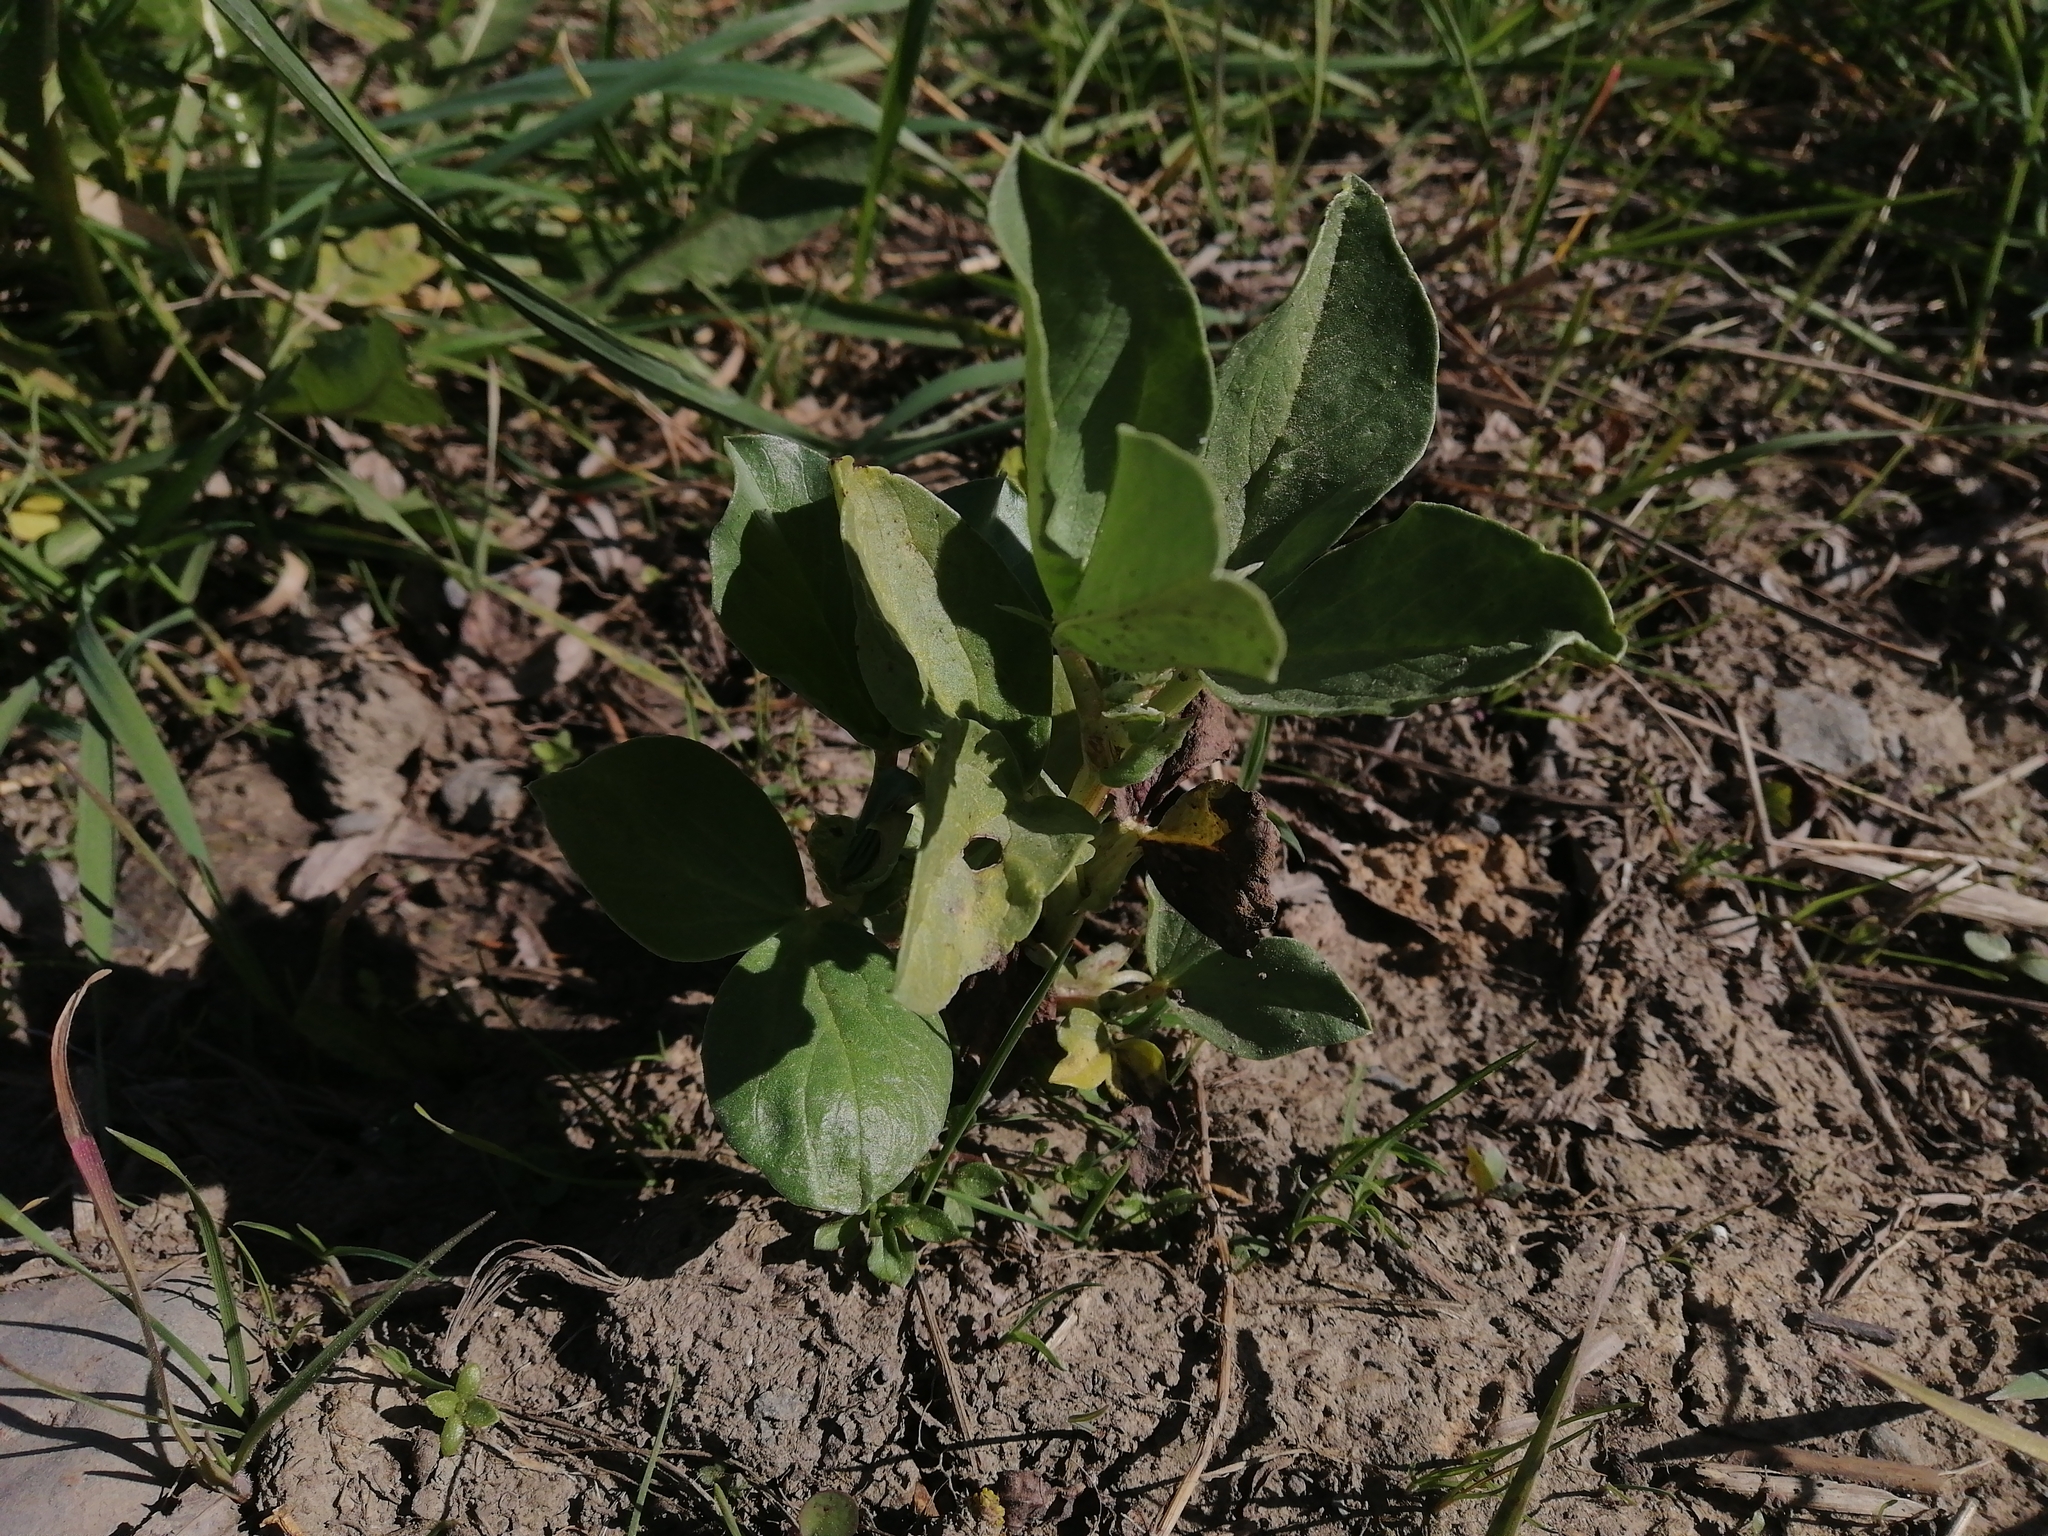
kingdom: Plantae
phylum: Tracheophyta
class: Magnoliopsida
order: Fabales
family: Fabaceae
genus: Vicia
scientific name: Vicia faba
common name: Broad bean
